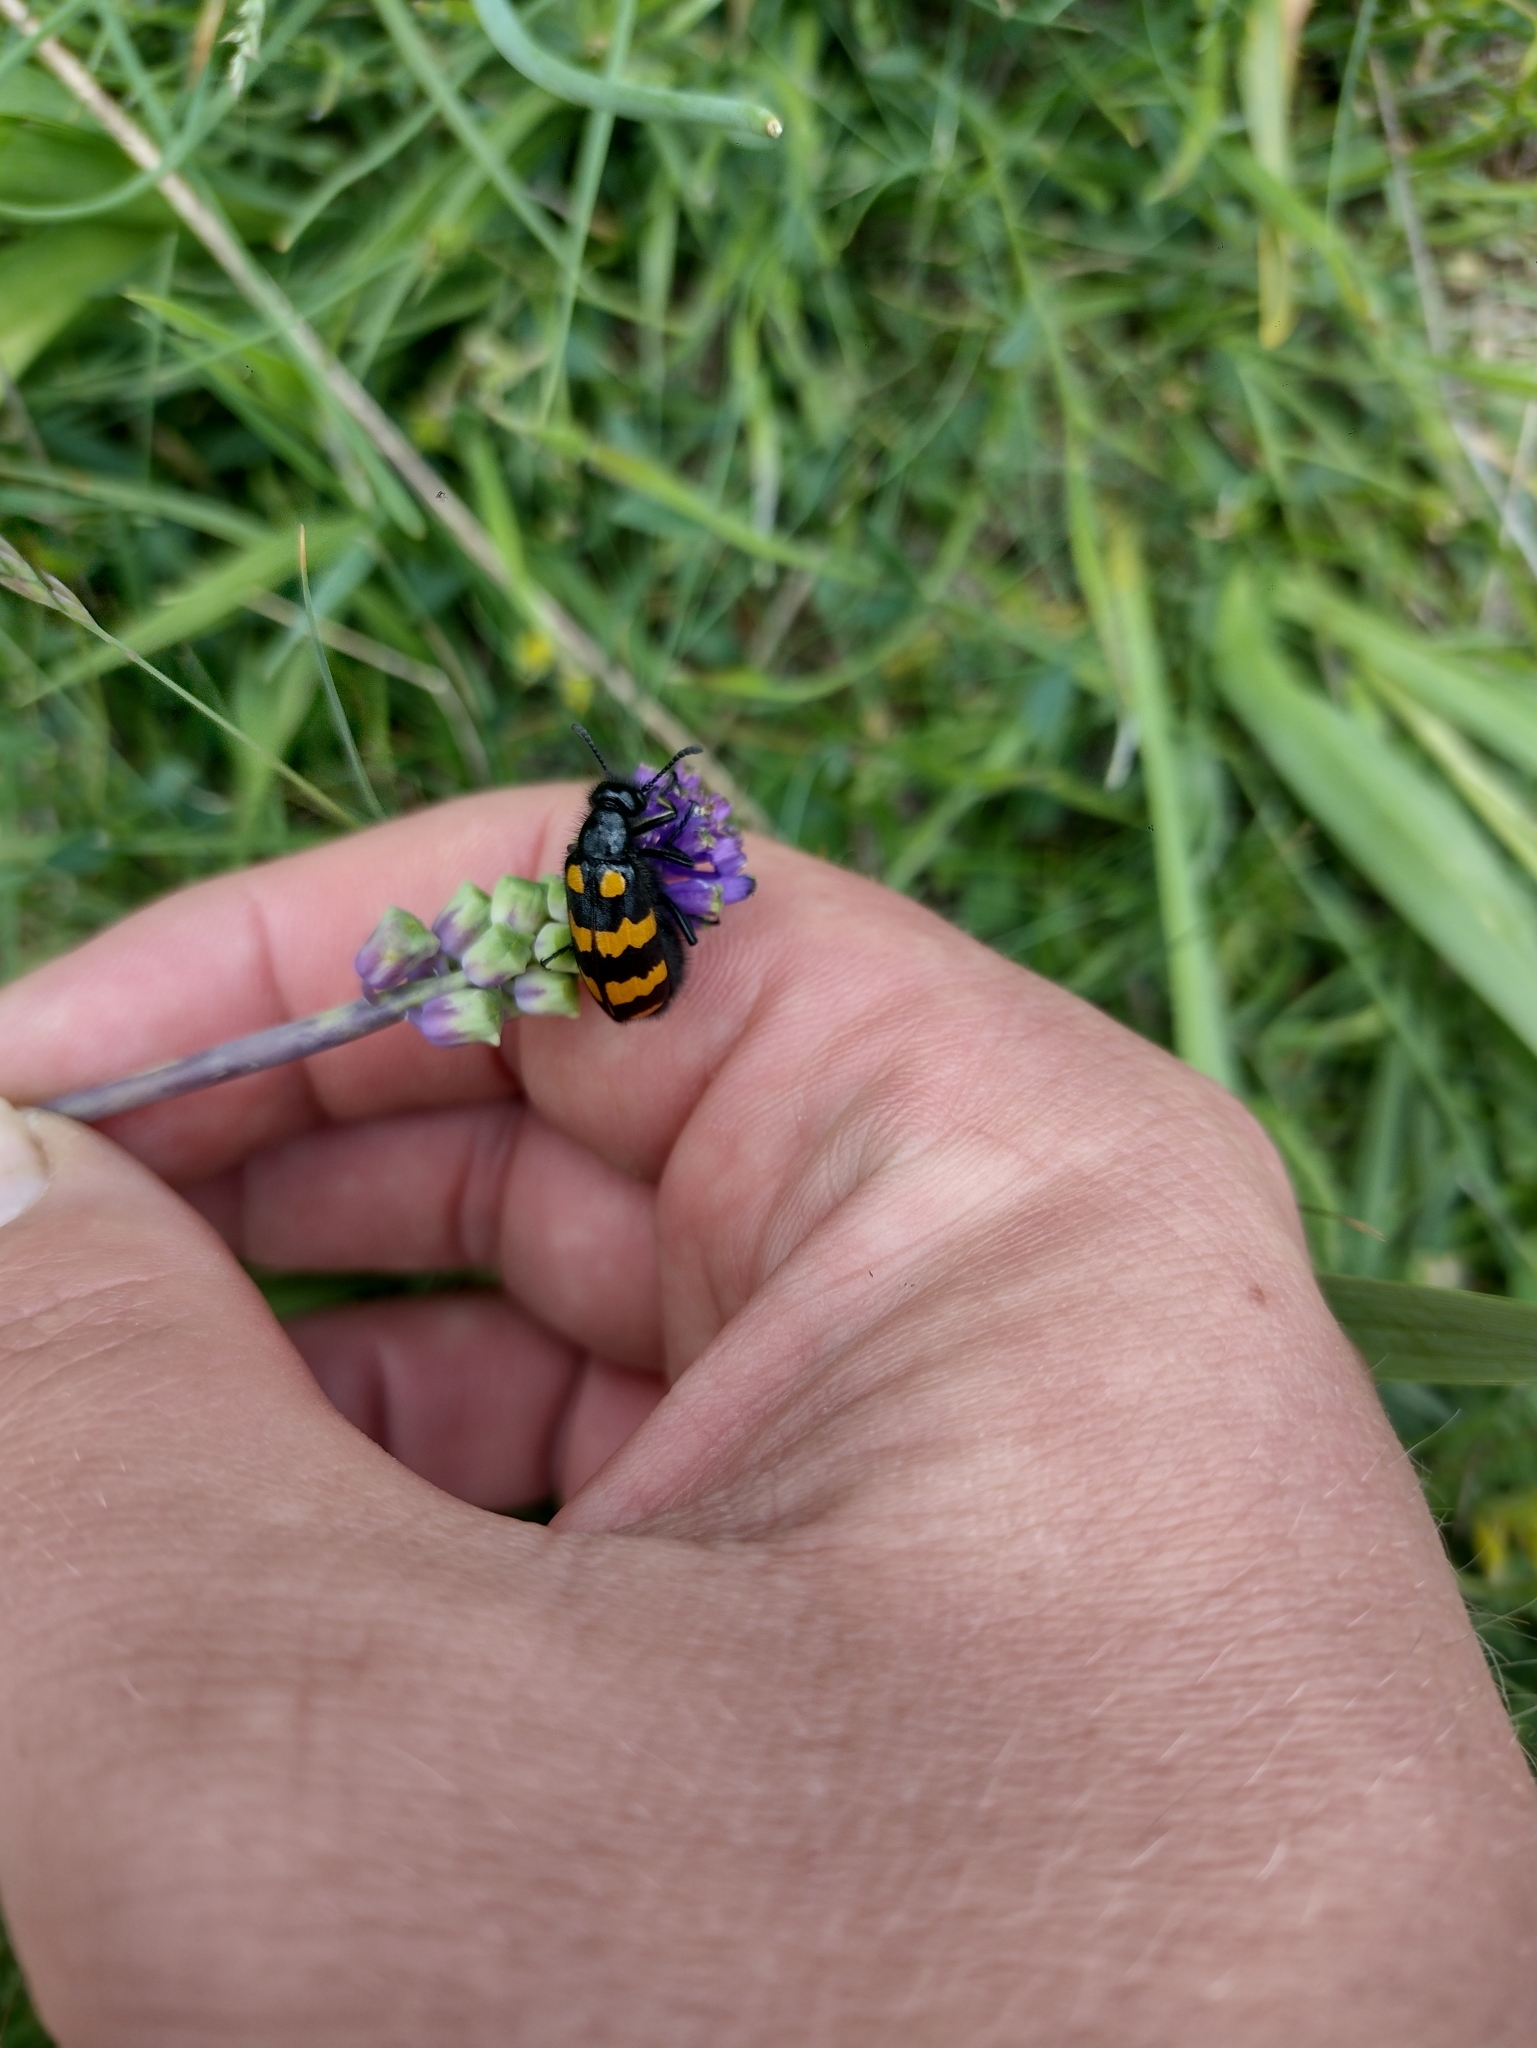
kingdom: Animalia
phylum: Arthropoda
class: Insecta
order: Coleoptera
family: Meloidae
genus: Hycleus
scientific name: Hycleus polymorphus
